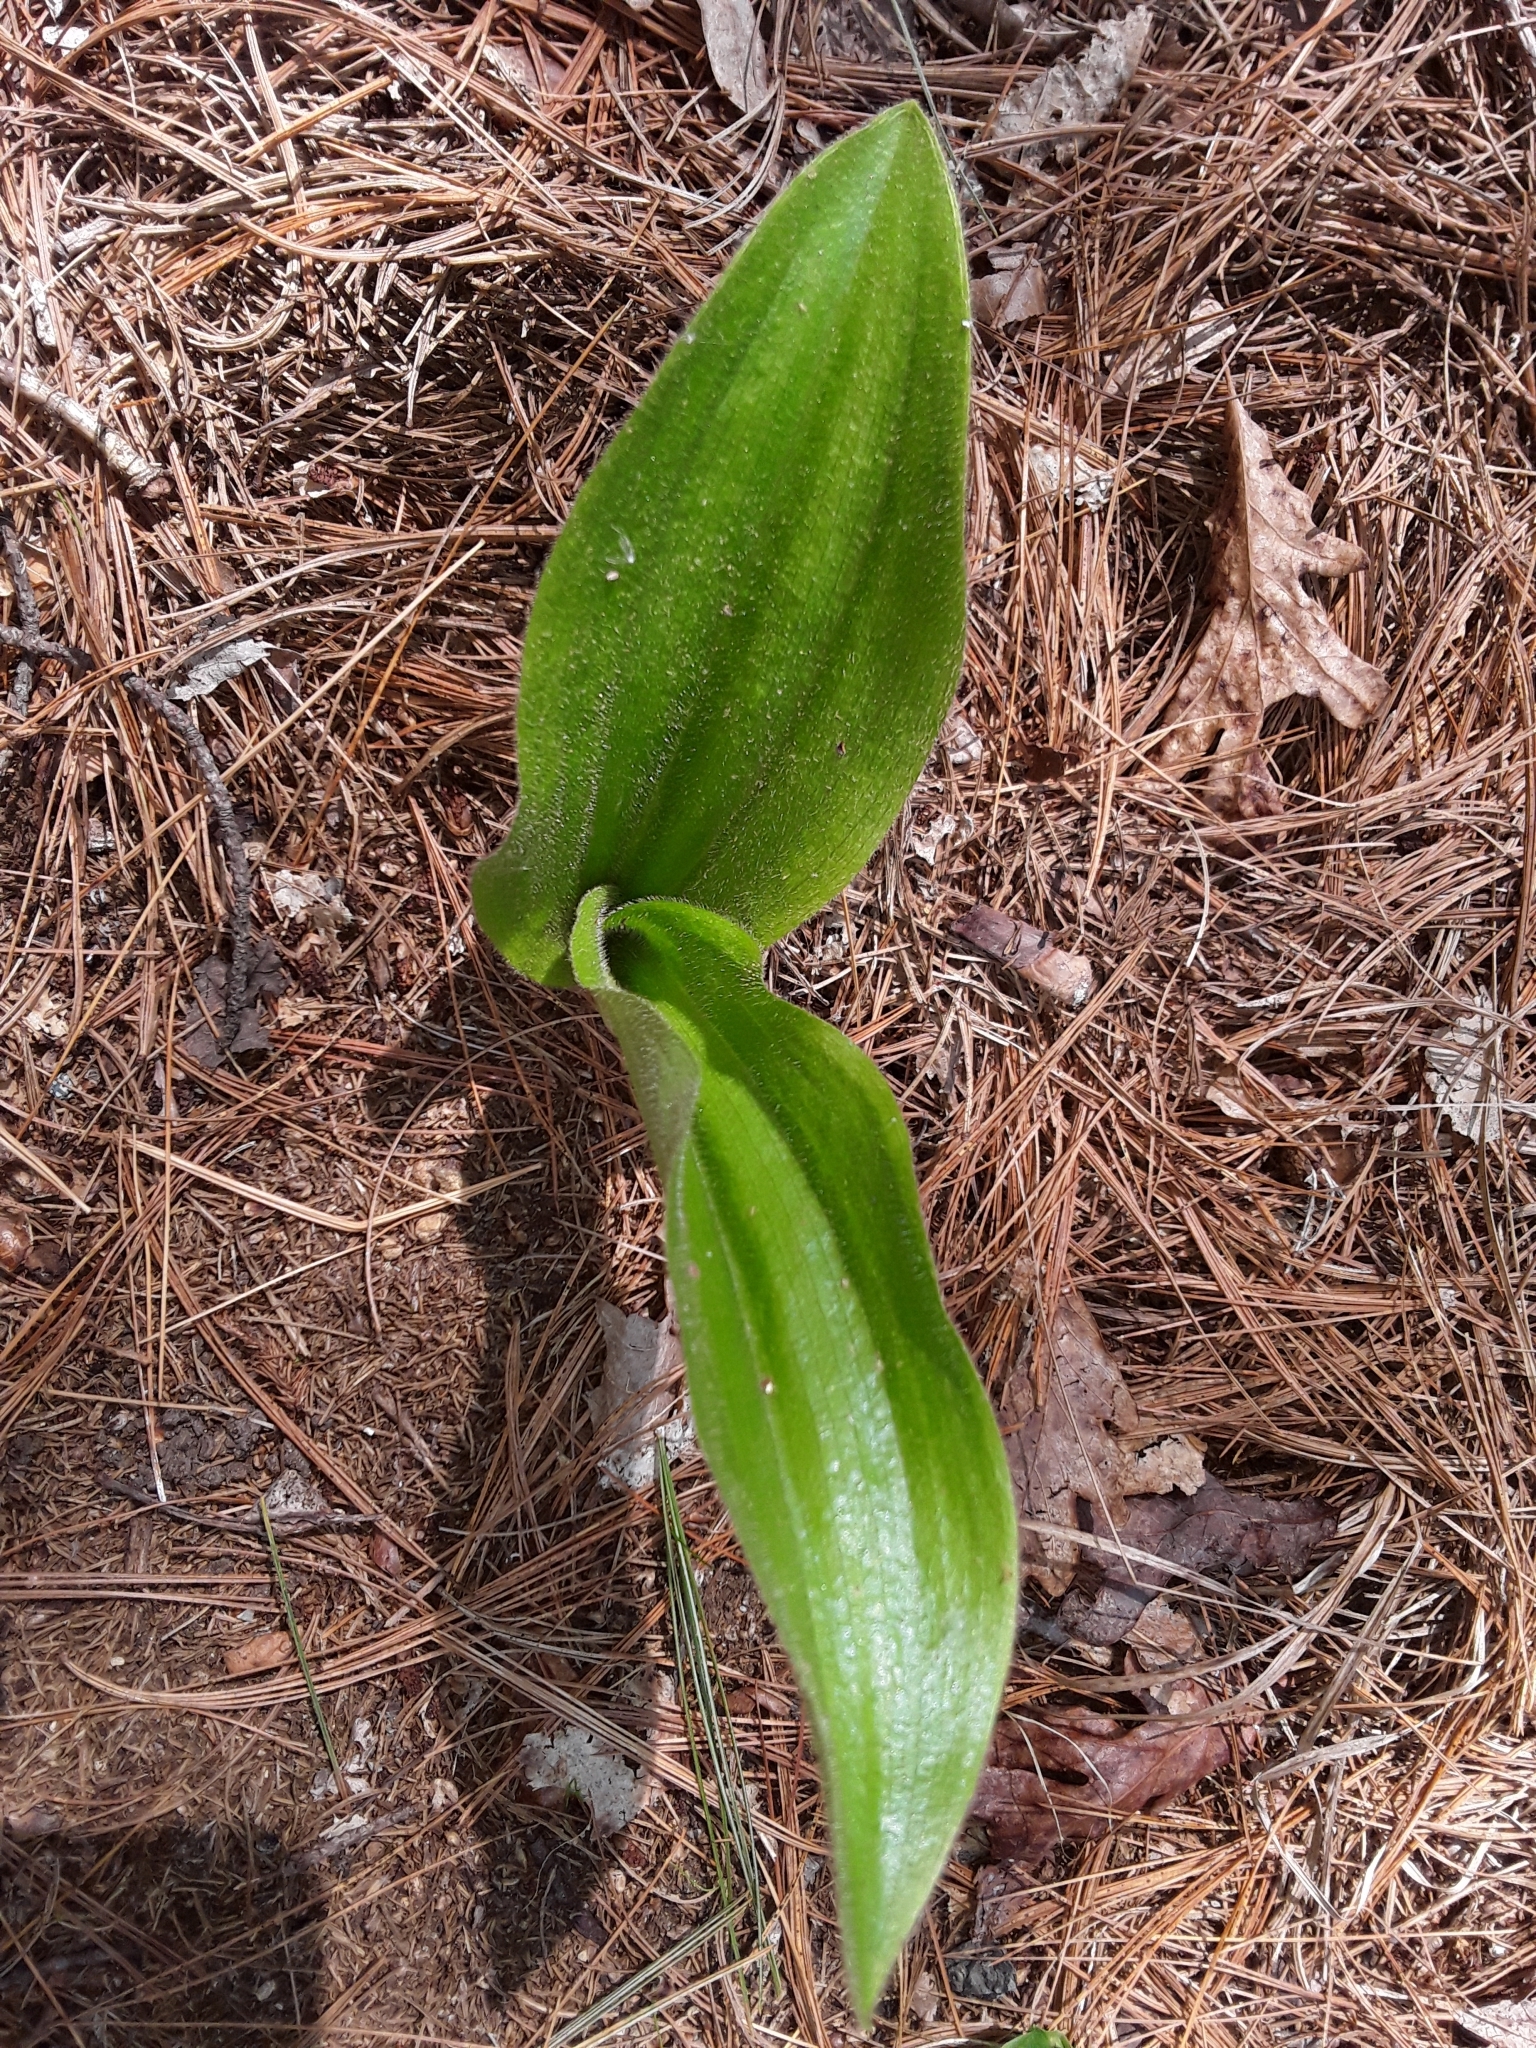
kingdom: Plantae
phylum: Tracheophyta
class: Liliopsida
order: Asparagales
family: Orchidaceae
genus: Cypripedium
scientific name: Cypripedium acaule
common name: Pink lady's-slipper
